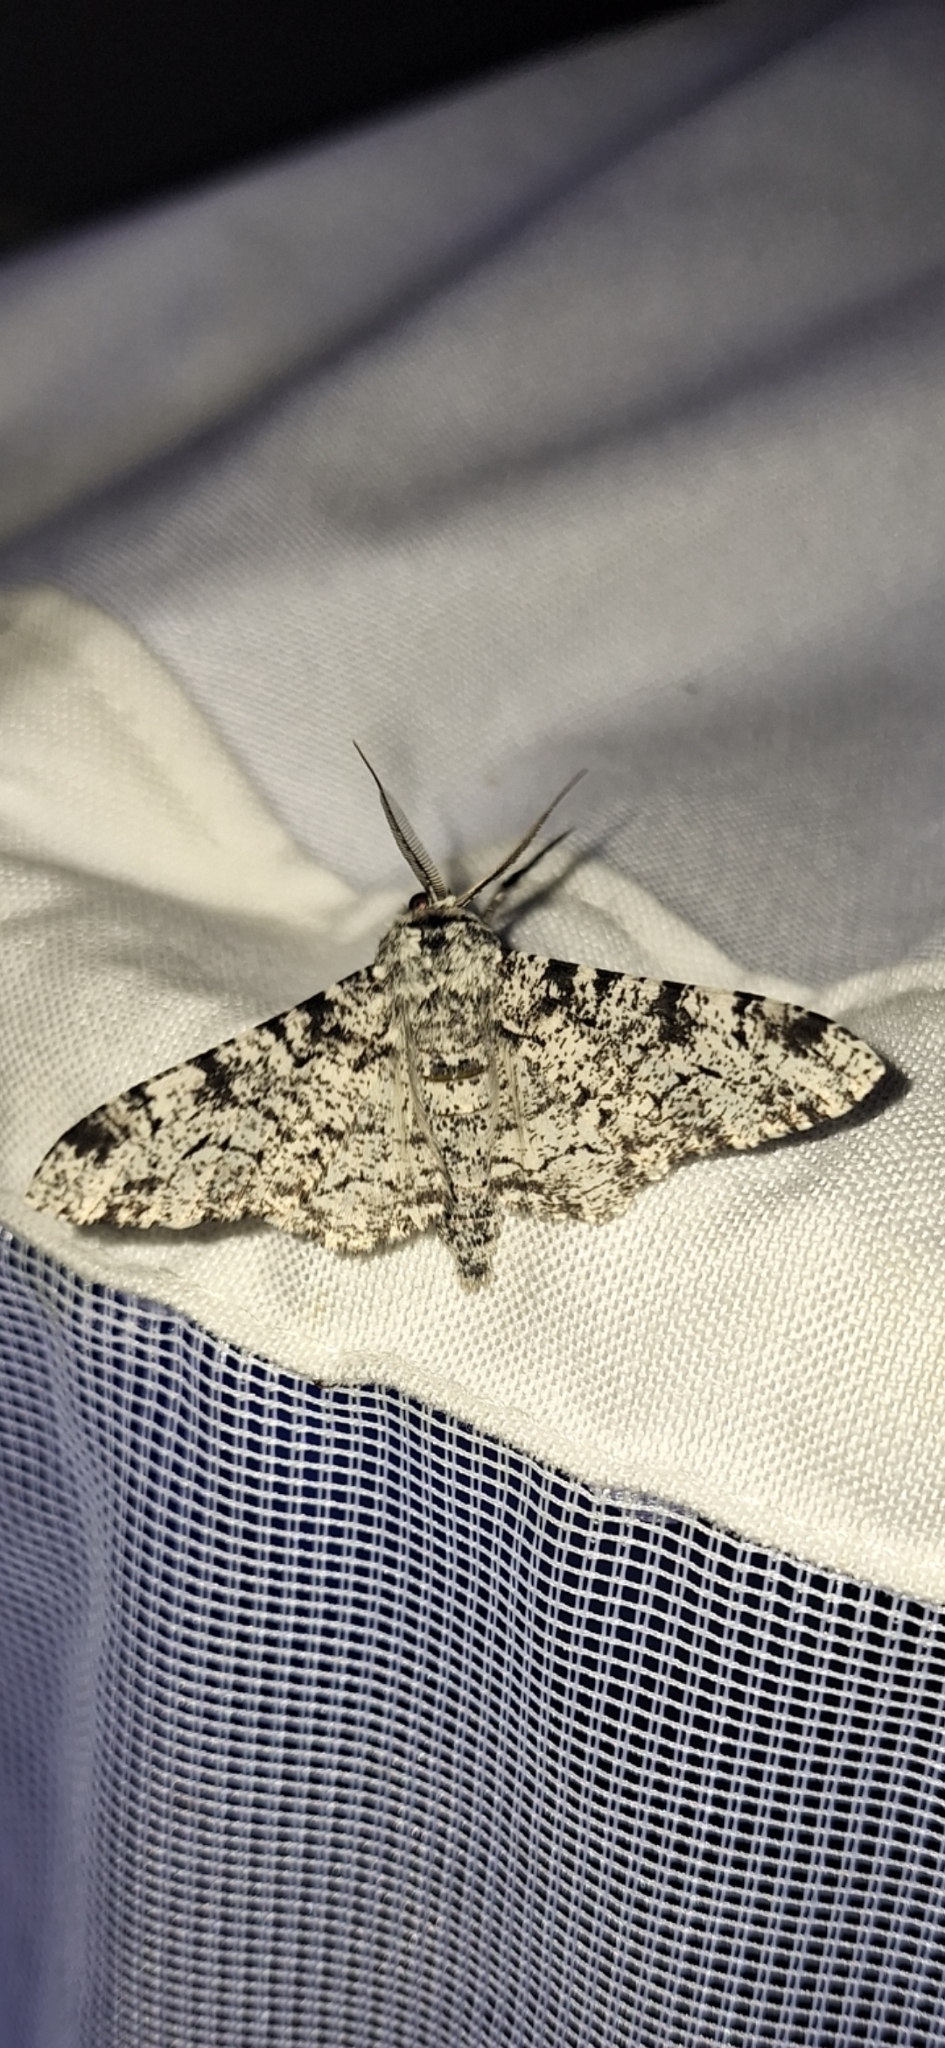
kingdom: Animalia
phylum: Arthropoda
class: Insecta
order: Lepidoptera
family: Geometridae
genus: Biston
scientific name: Biston betularia
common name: Peppered moth
